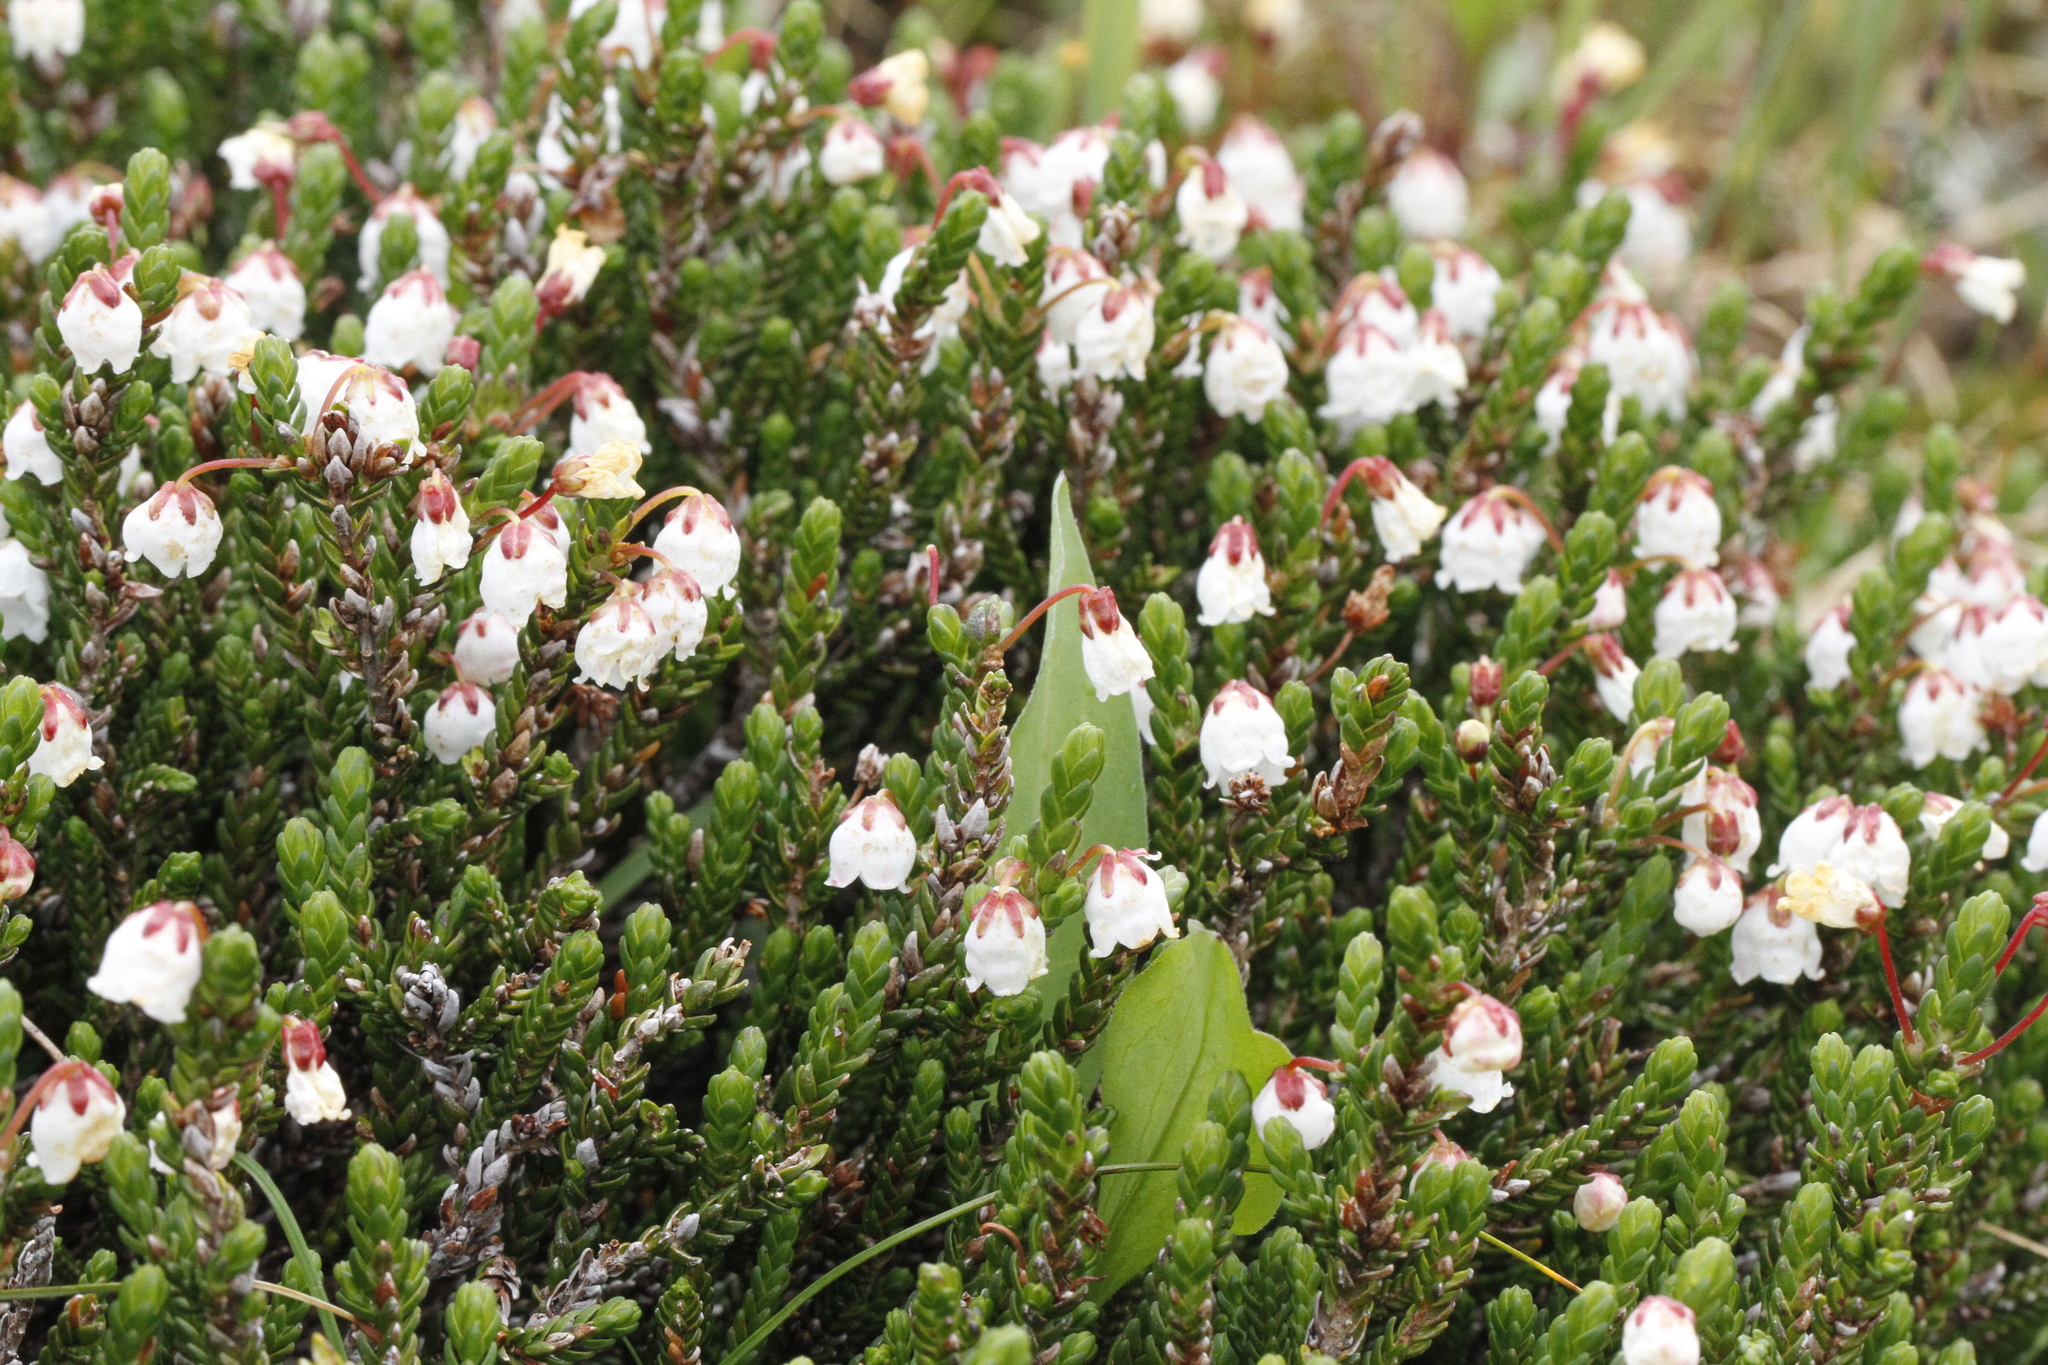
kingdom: Plantae
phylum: Tracheophyta
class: Magnoliopsida
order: Ericales
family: Ericaceae
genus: Cassiope
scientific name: Cassiope mertensiana
